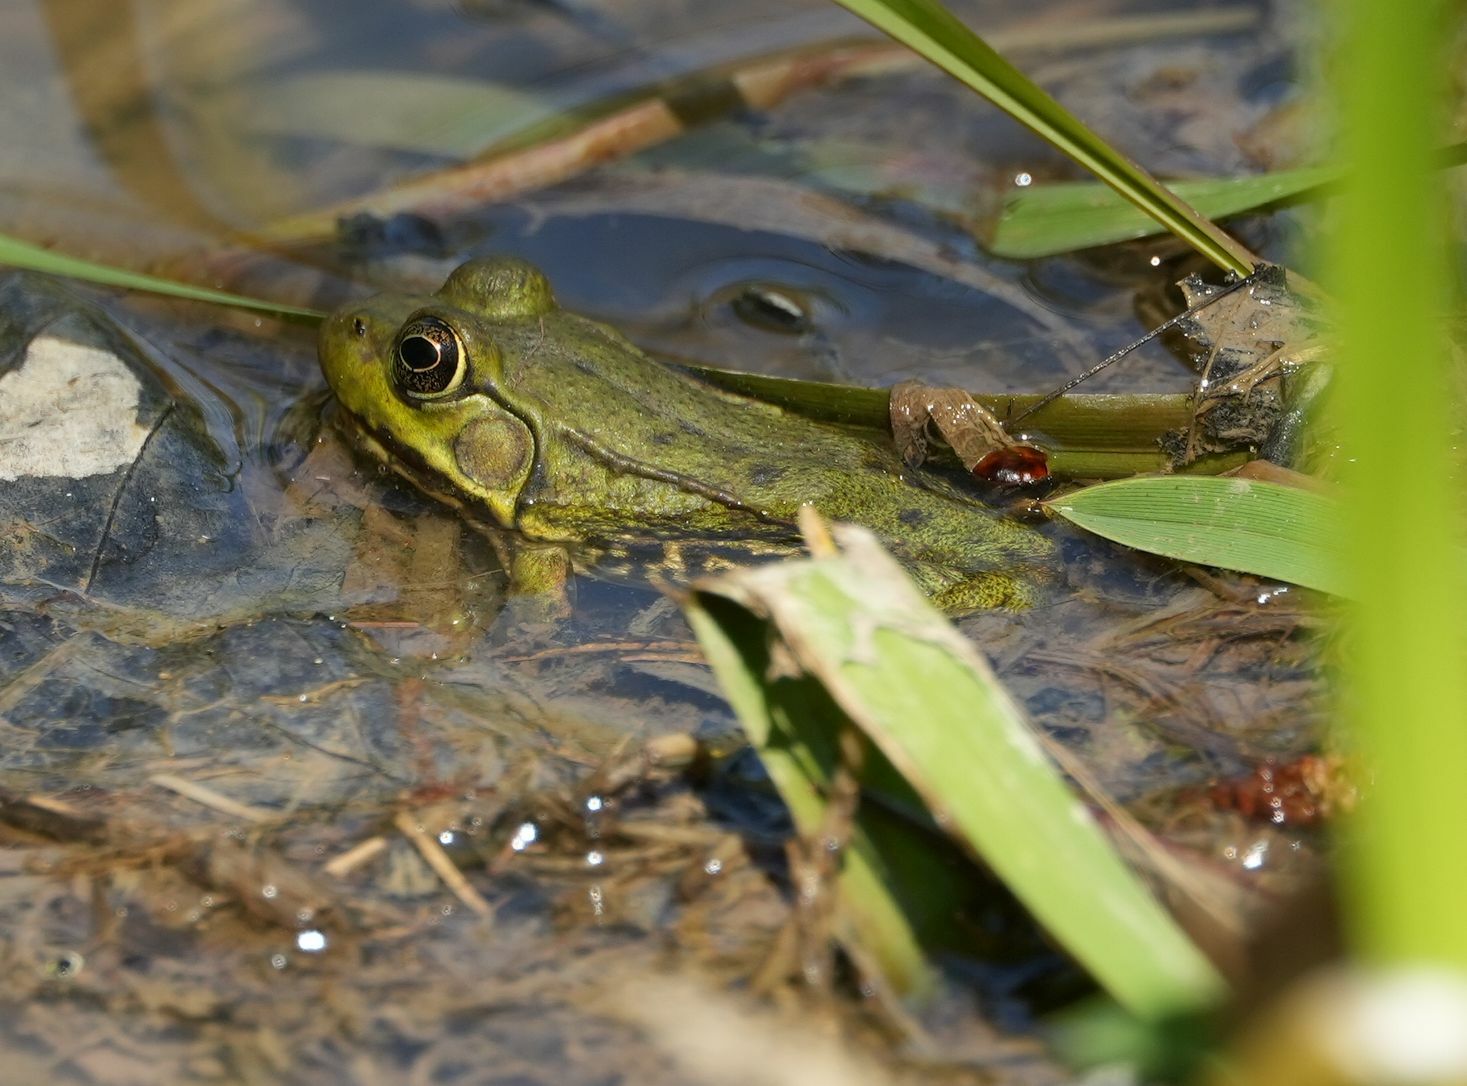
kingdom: Animalia
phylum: Chordata
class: Amphibia
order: Anura
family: Ranidae
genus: Lithobates
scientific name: Lithobates clamitans
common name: Green frog
